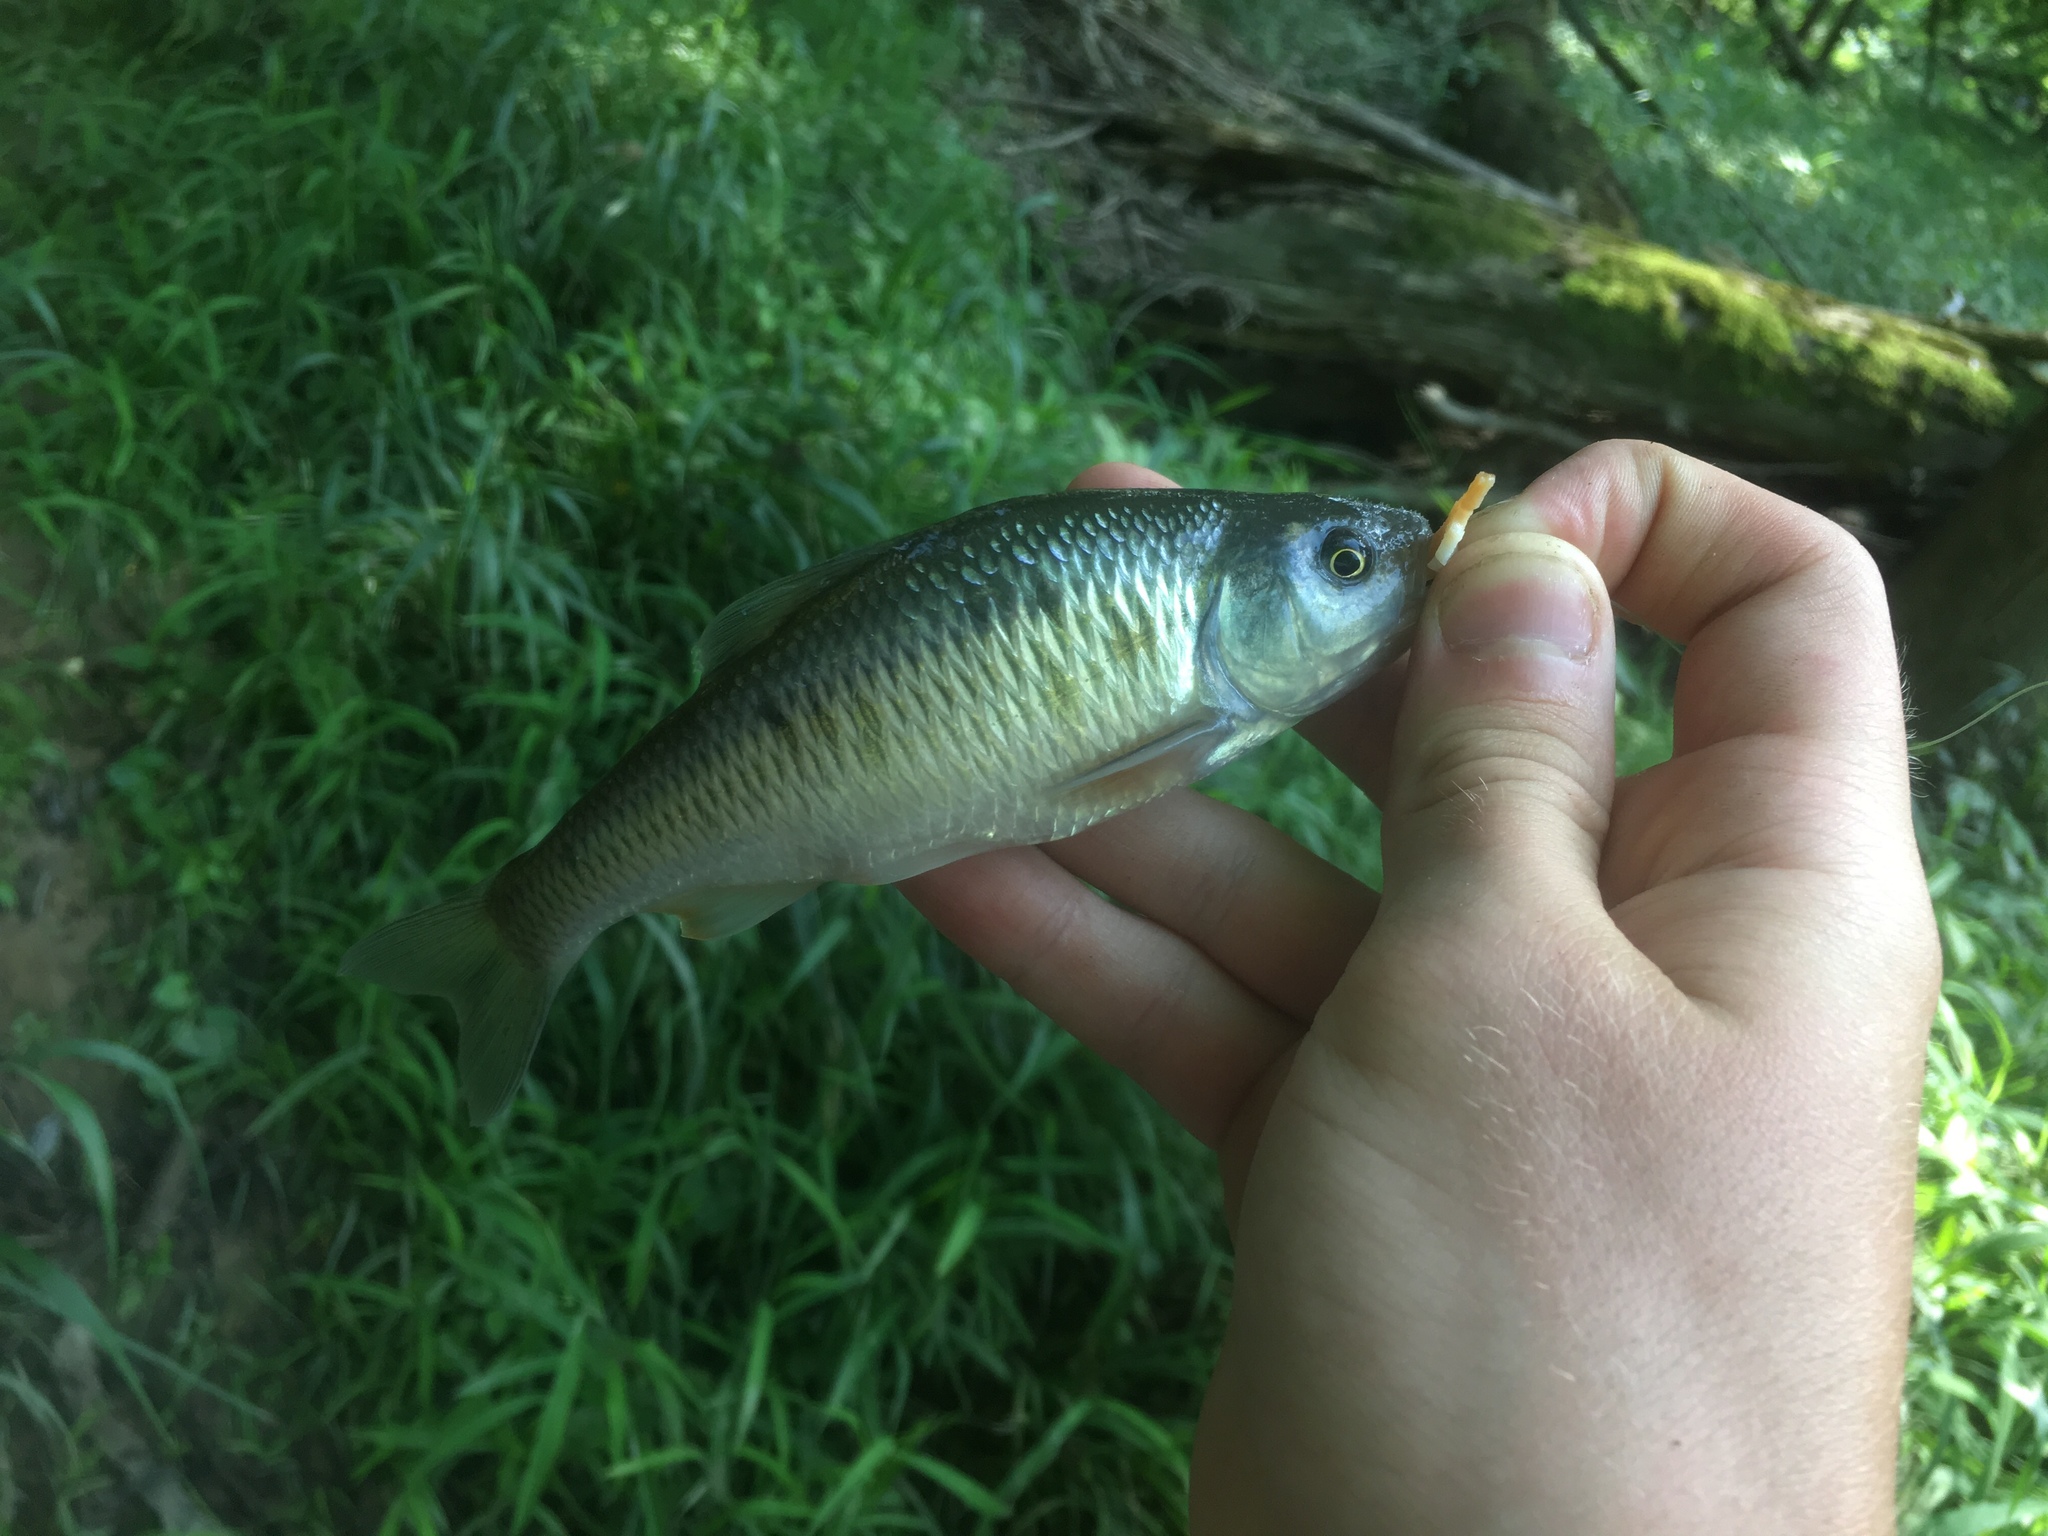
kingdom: Animalia
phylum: Chordata
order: Cypriniformes
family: Cyprinidae
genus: Luxilus
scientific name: Luxilus cornutus
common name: Common shiner
